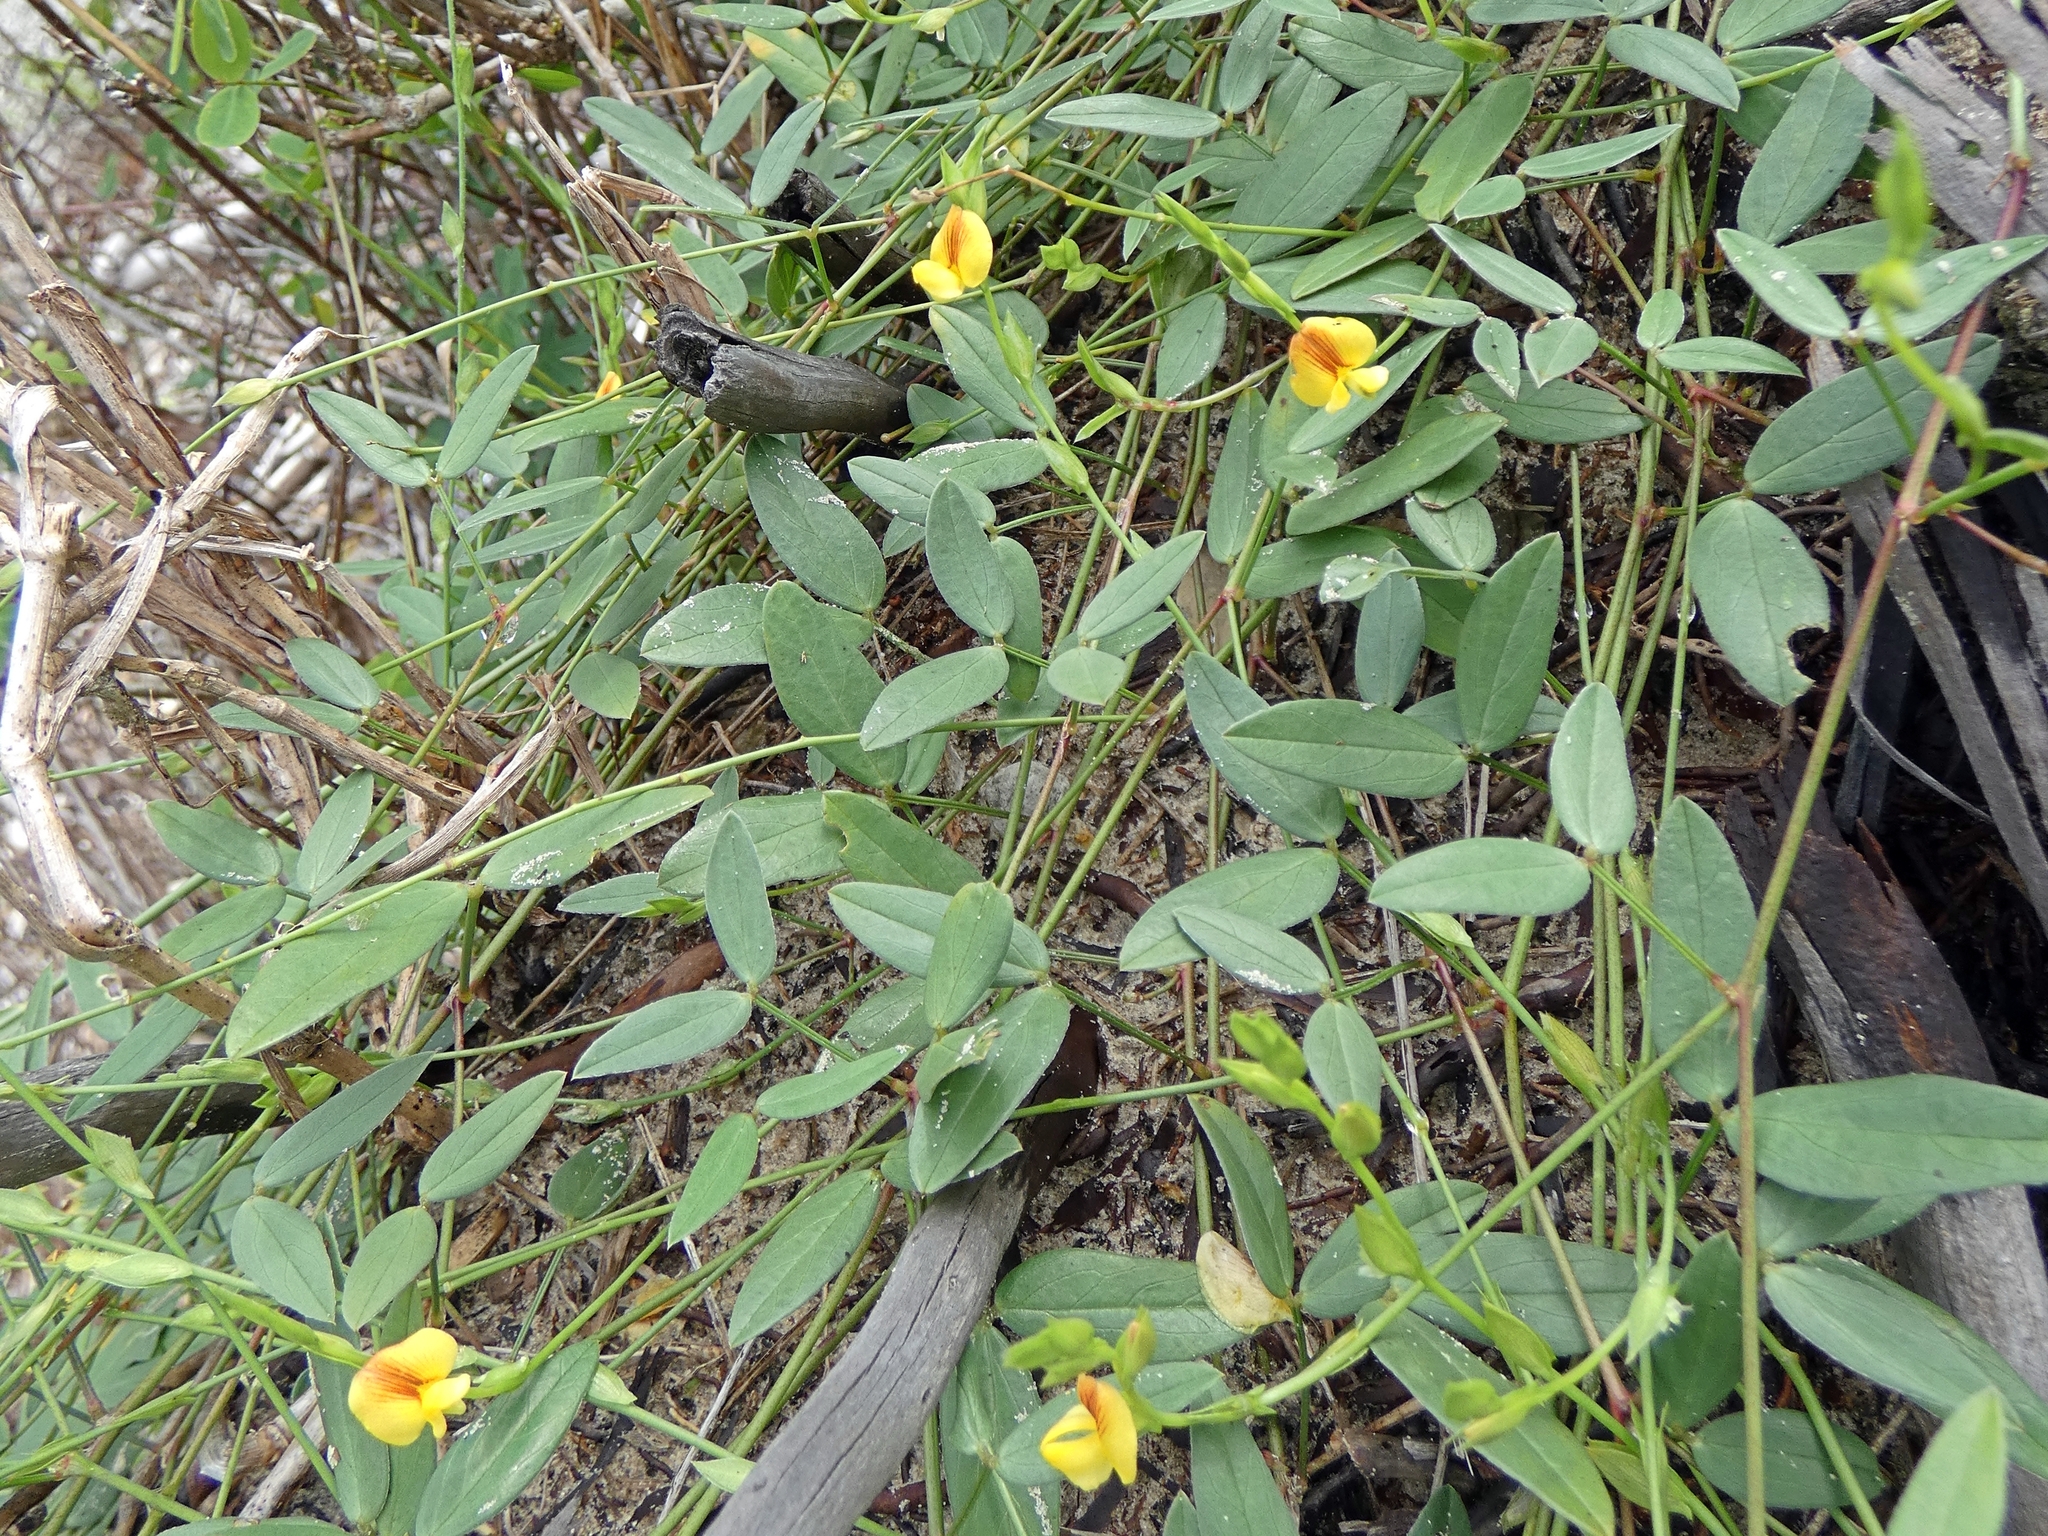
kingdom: Plantae
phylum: Tracheophyta
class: Magnoliopsida
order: Fabales
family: Fabaceae
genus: Zornia
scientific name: Zornia dyctiocarpa
